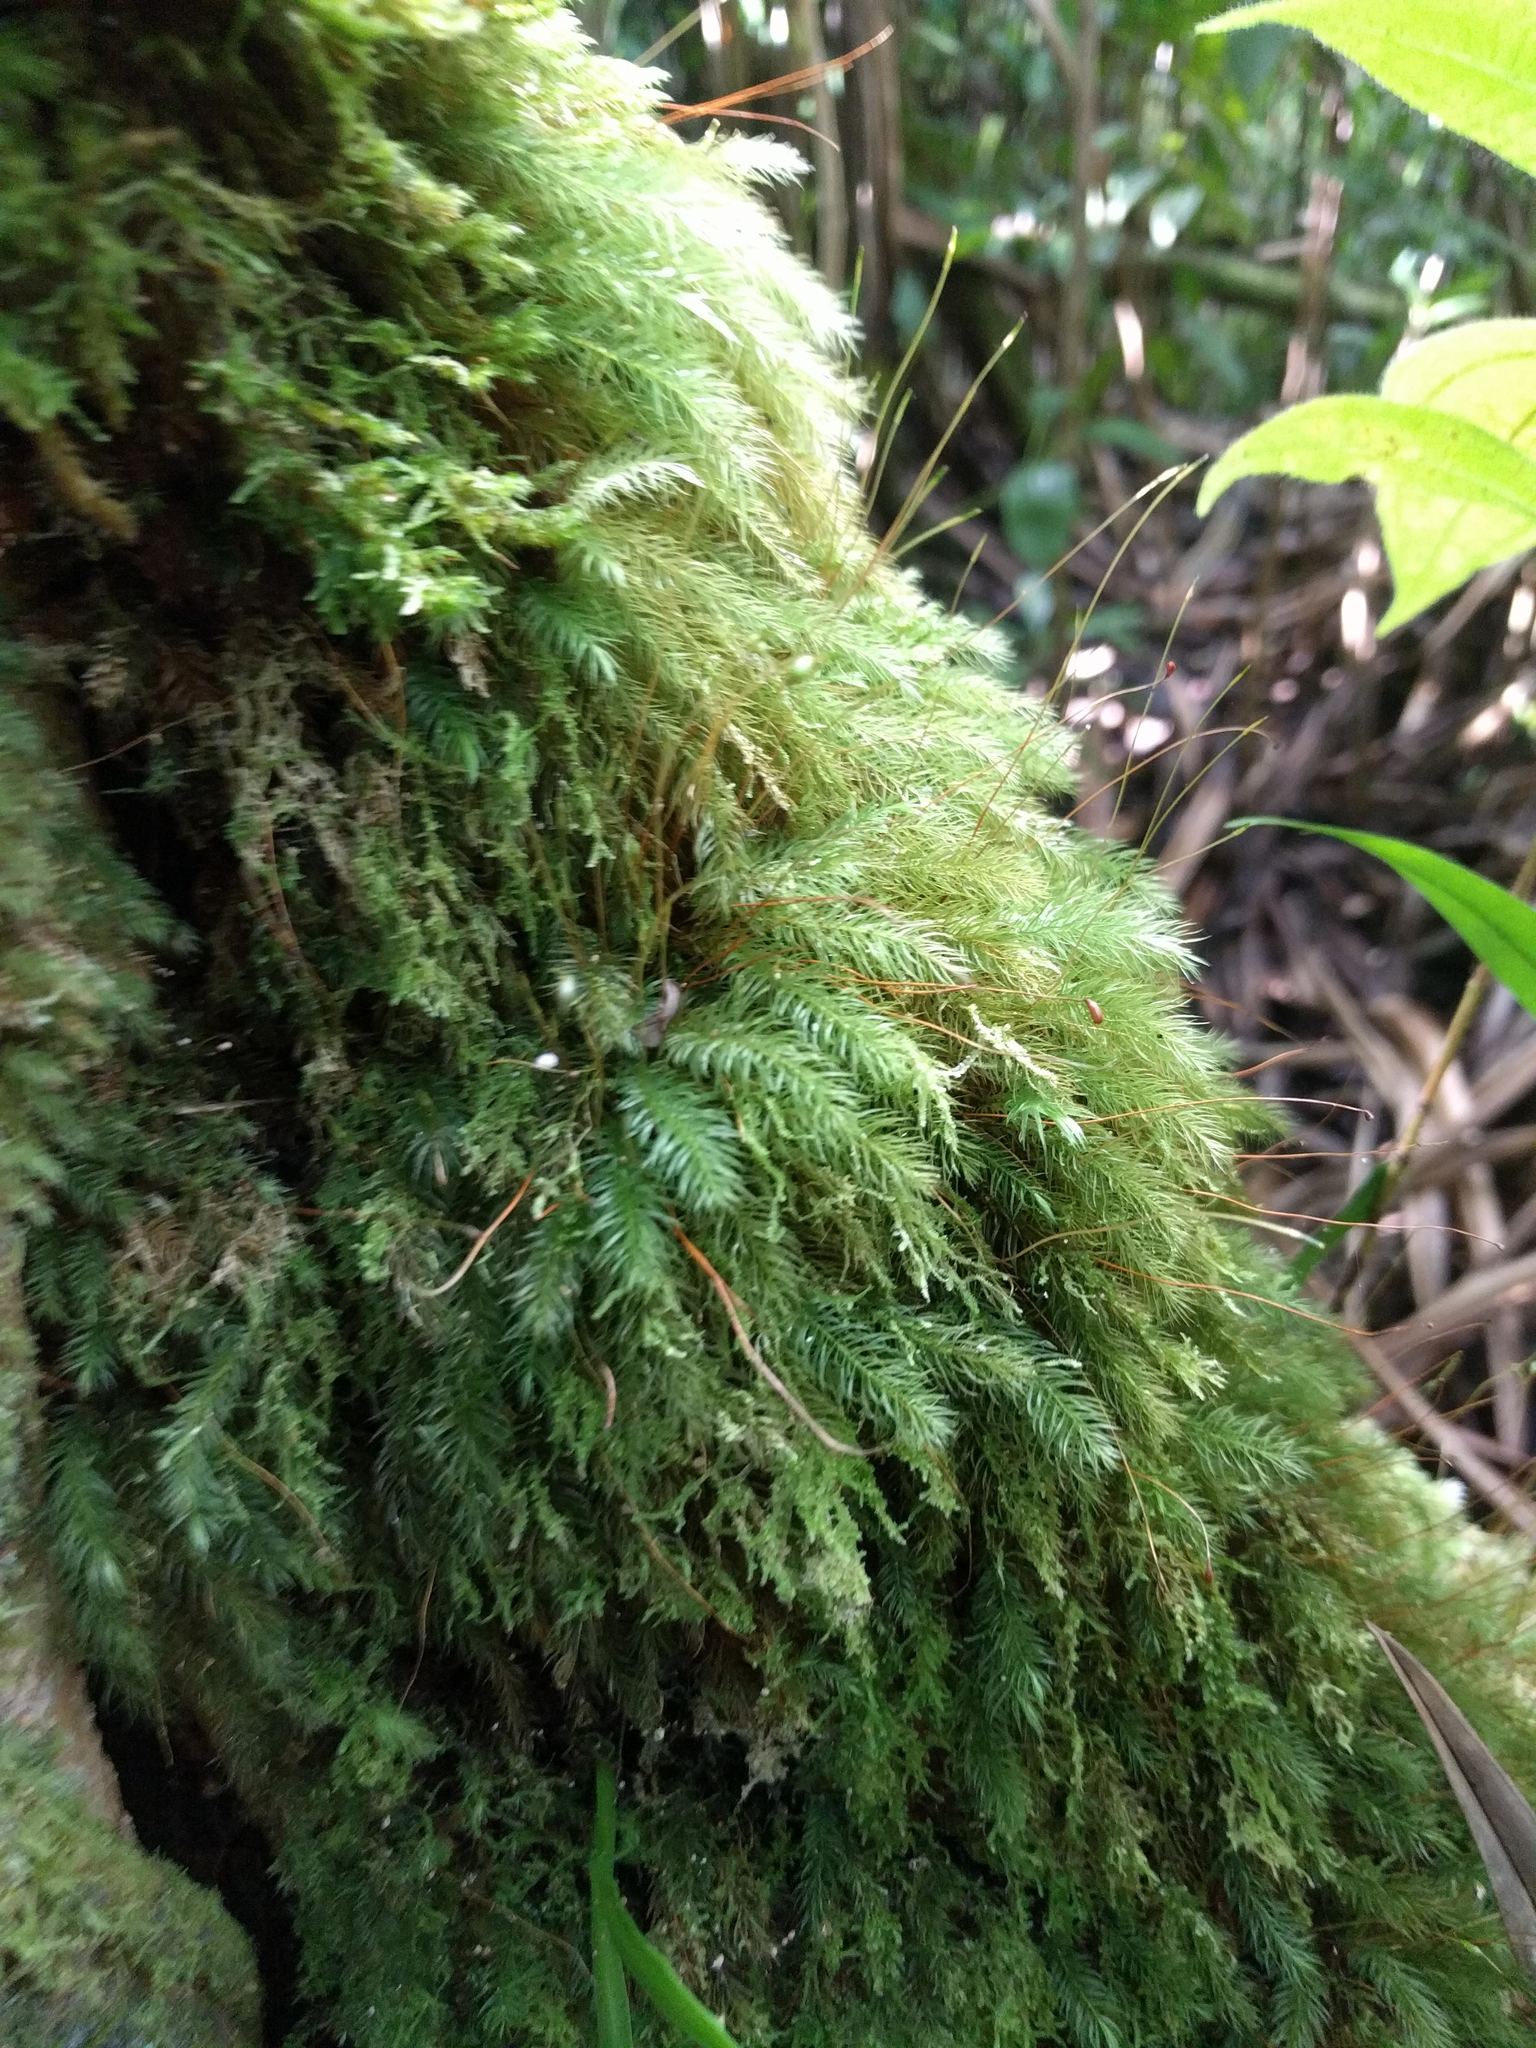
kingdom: Plantae
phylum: Bryophyta
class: Bryopsida
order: Rhizogoniales
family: Calomniaceae
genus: Pyrrhobryum
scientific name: Pyrrhobryum spiniforme
